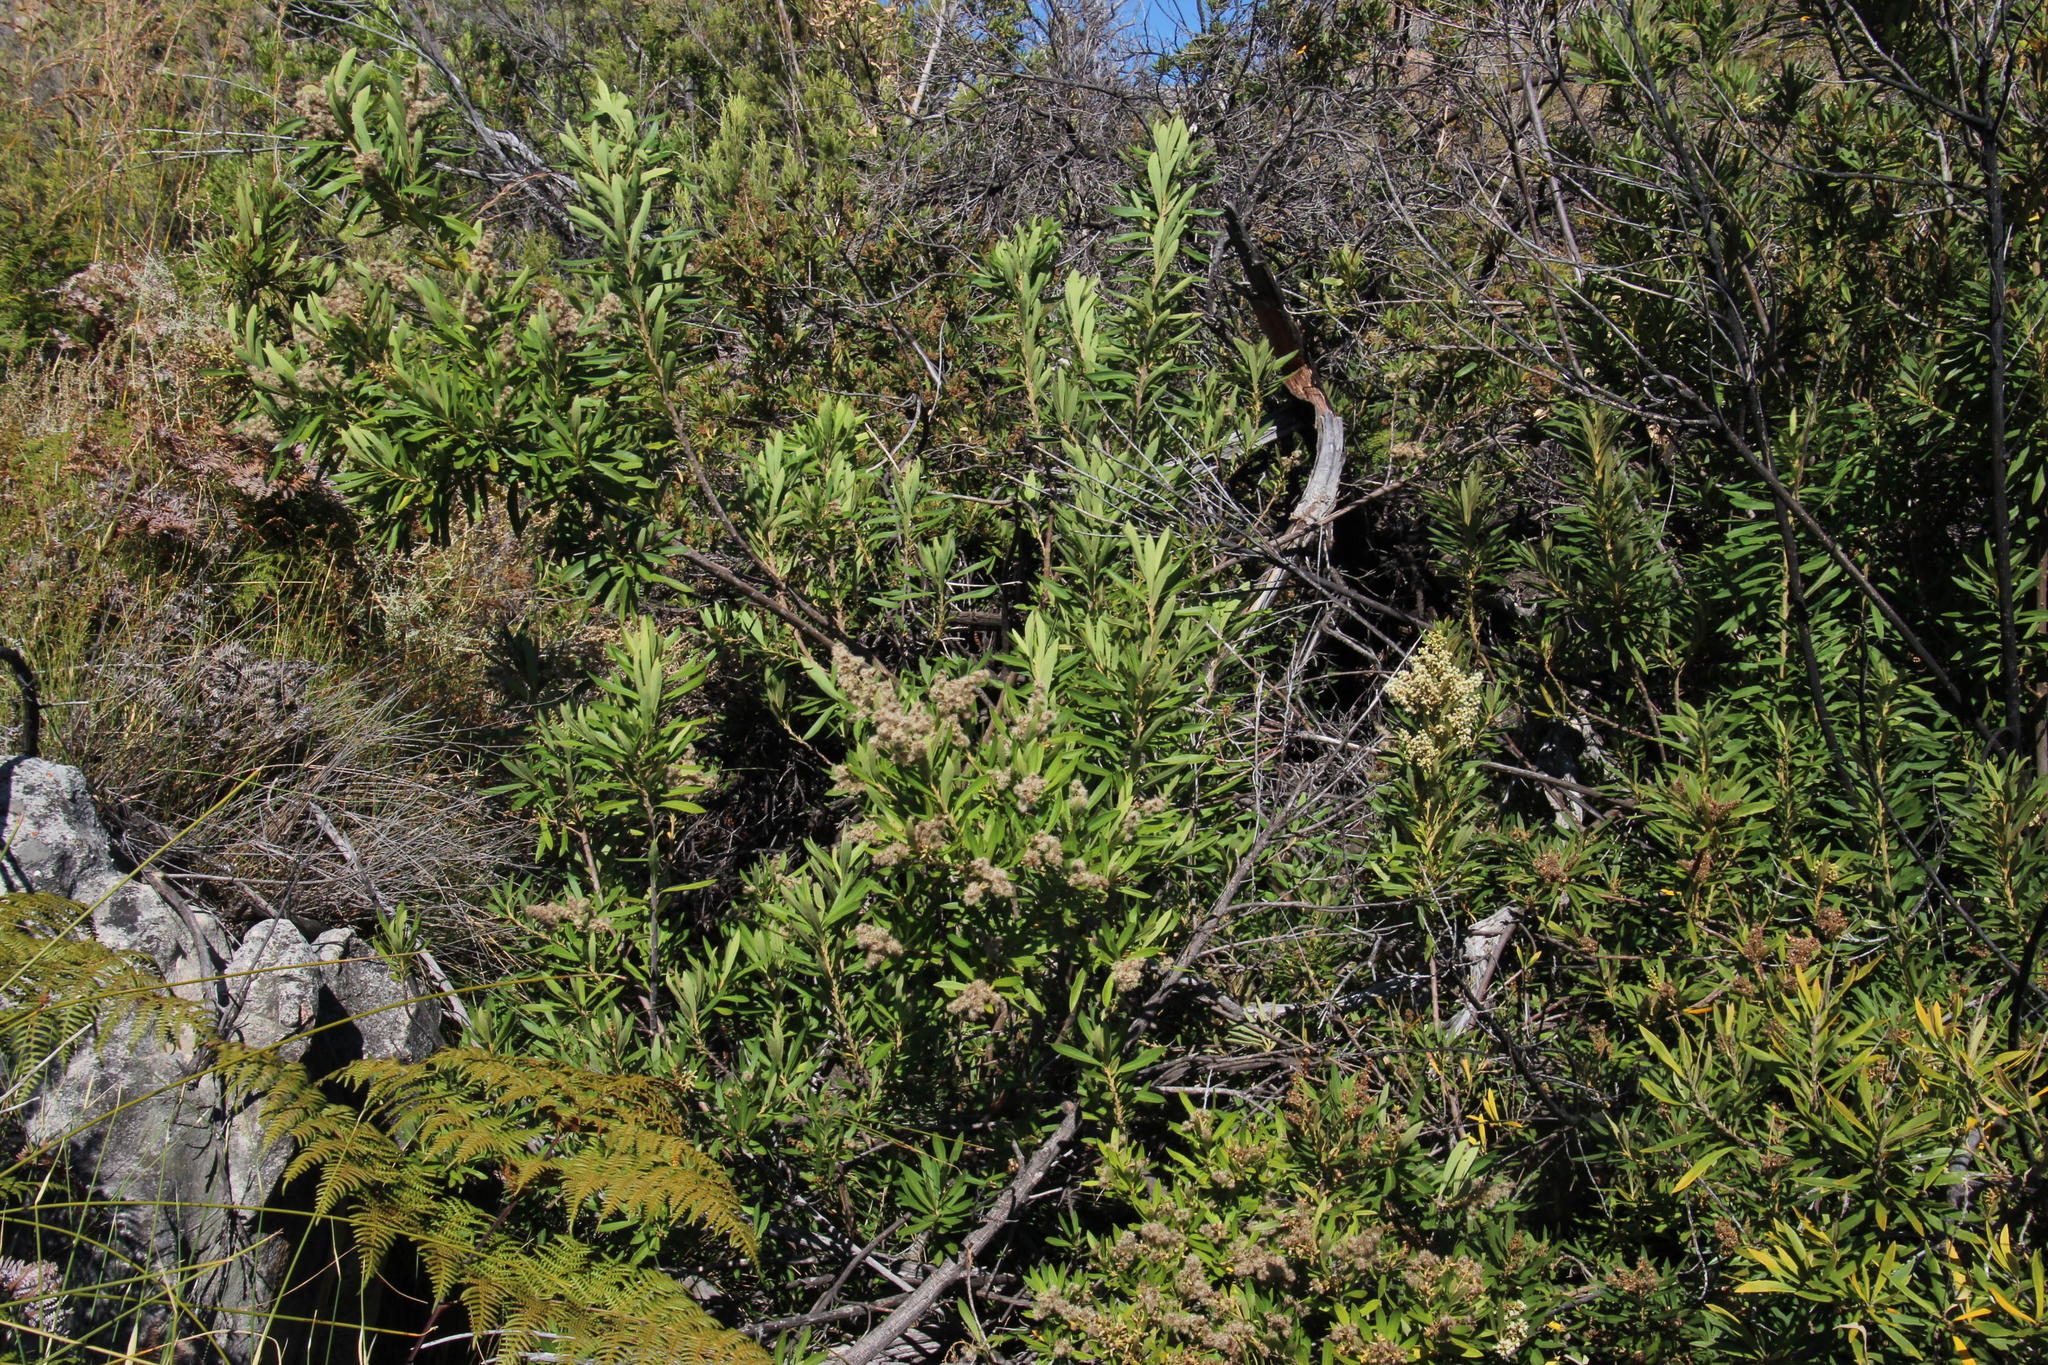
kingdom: Plantae
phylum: Tracheophyta
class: Magnoliopsida
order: Asterales
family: Asteraceae
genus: Brachylaena
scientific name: Brachylaena neriifolia
